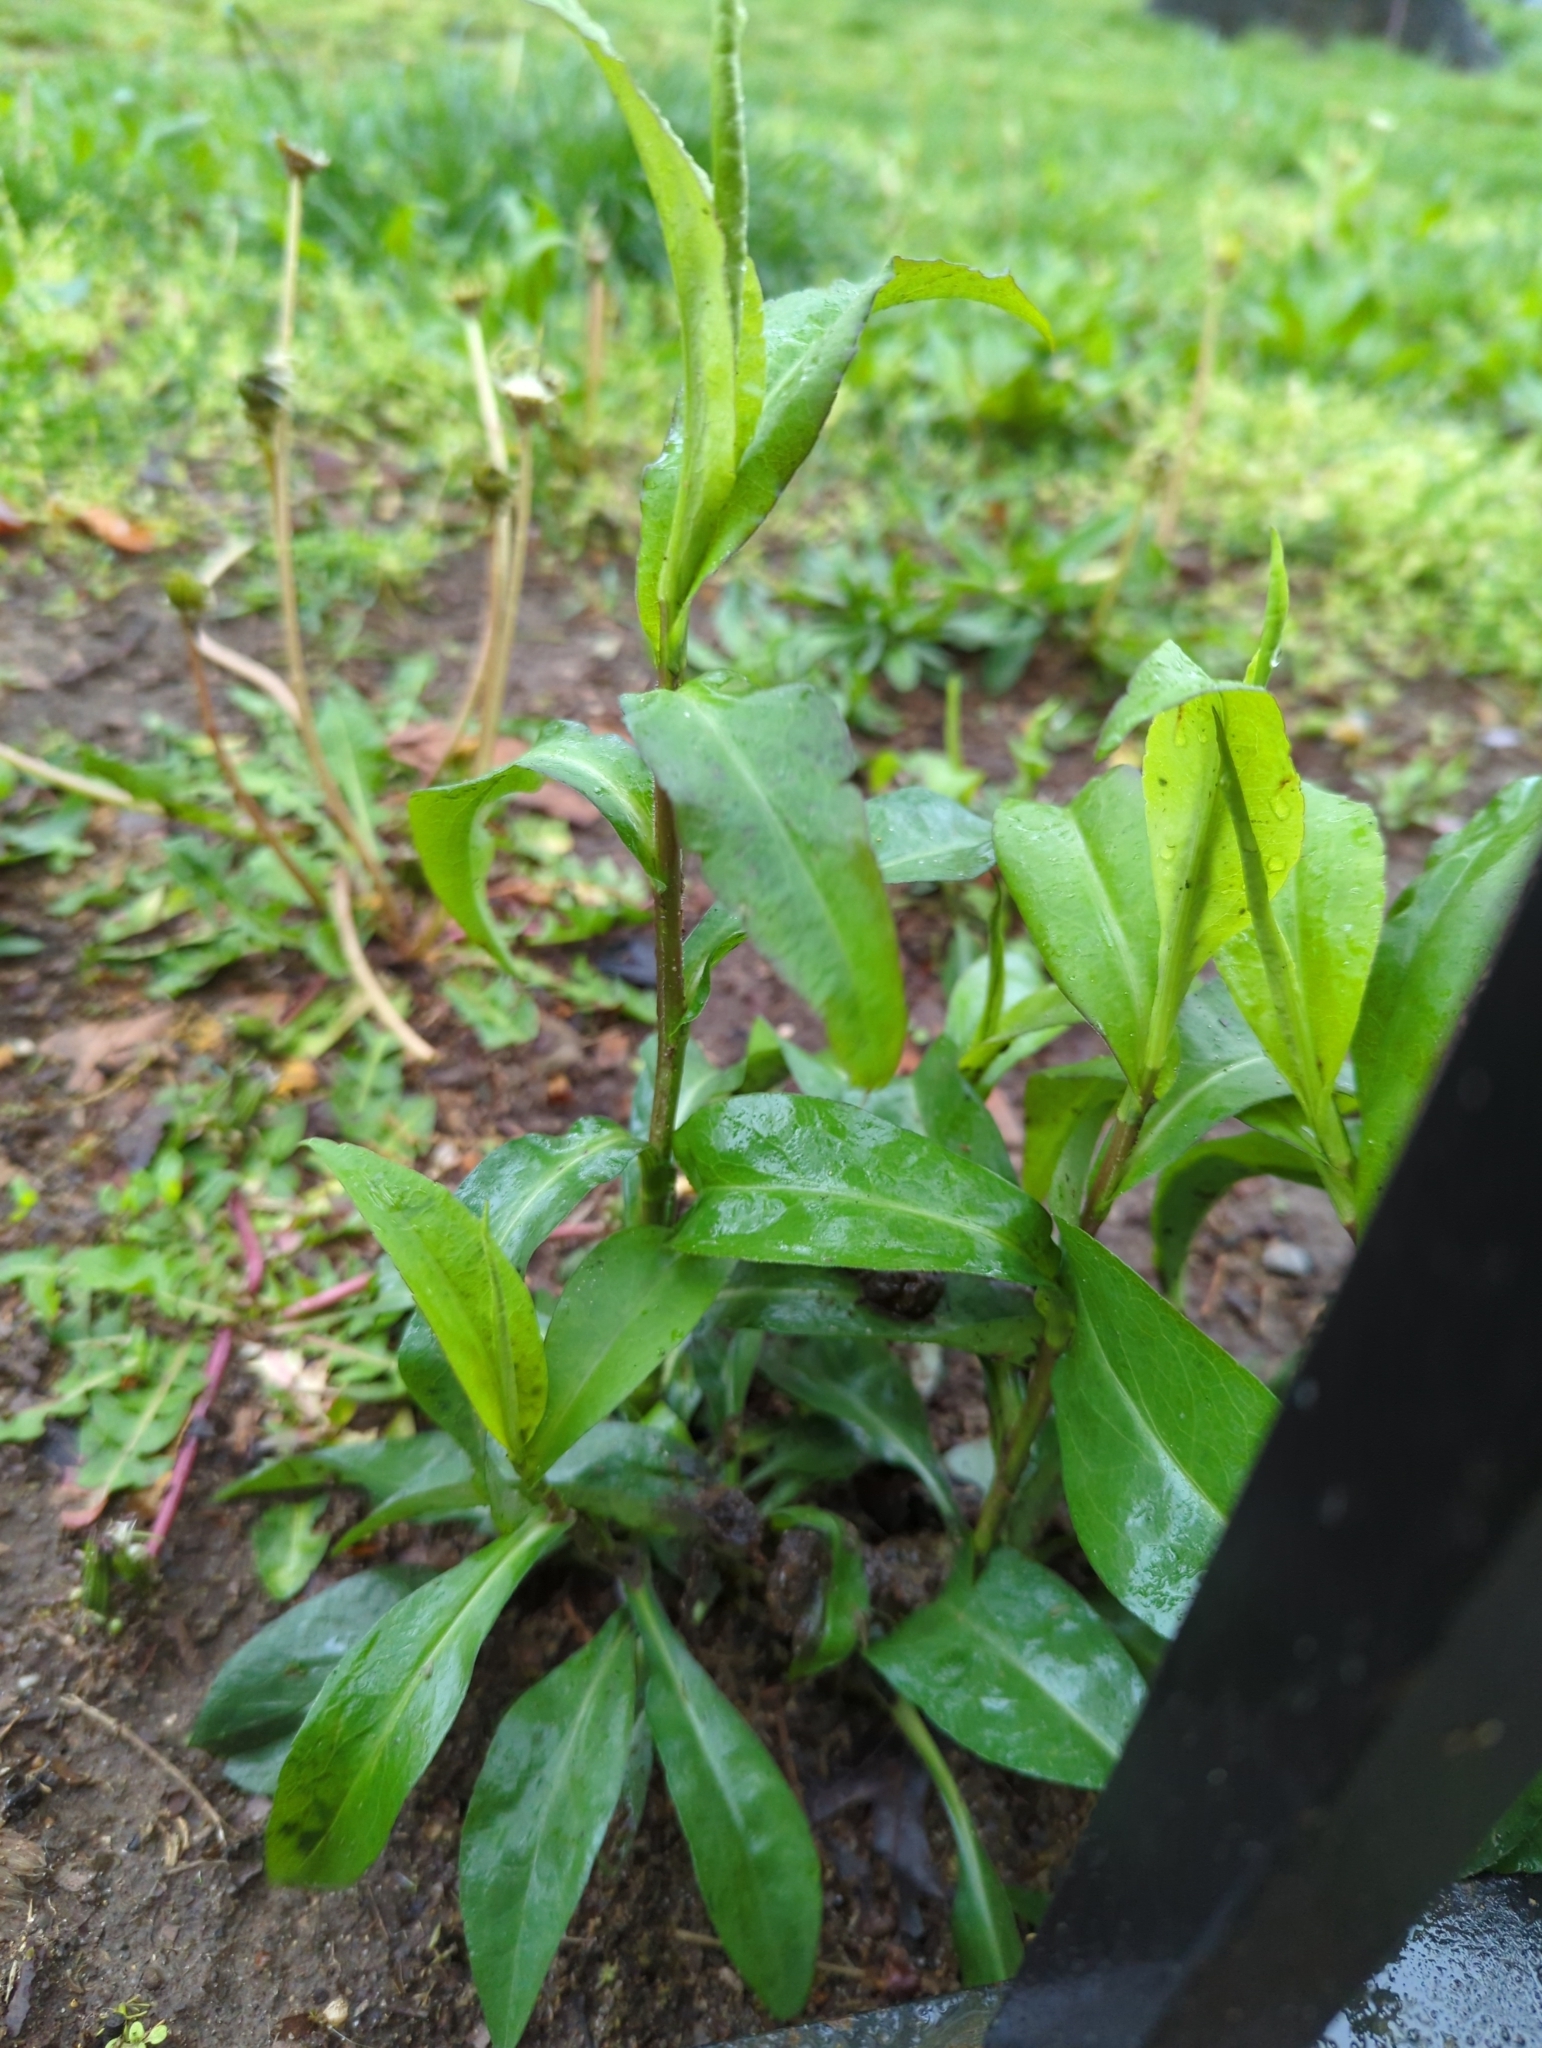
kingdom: Plantae
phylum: Tracheophyta
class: Magnoliopsida
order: Asterales
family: Asteraceae
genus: Symphyotrichum
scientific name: Symphyotrichum laeve
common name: Glaucous aster
